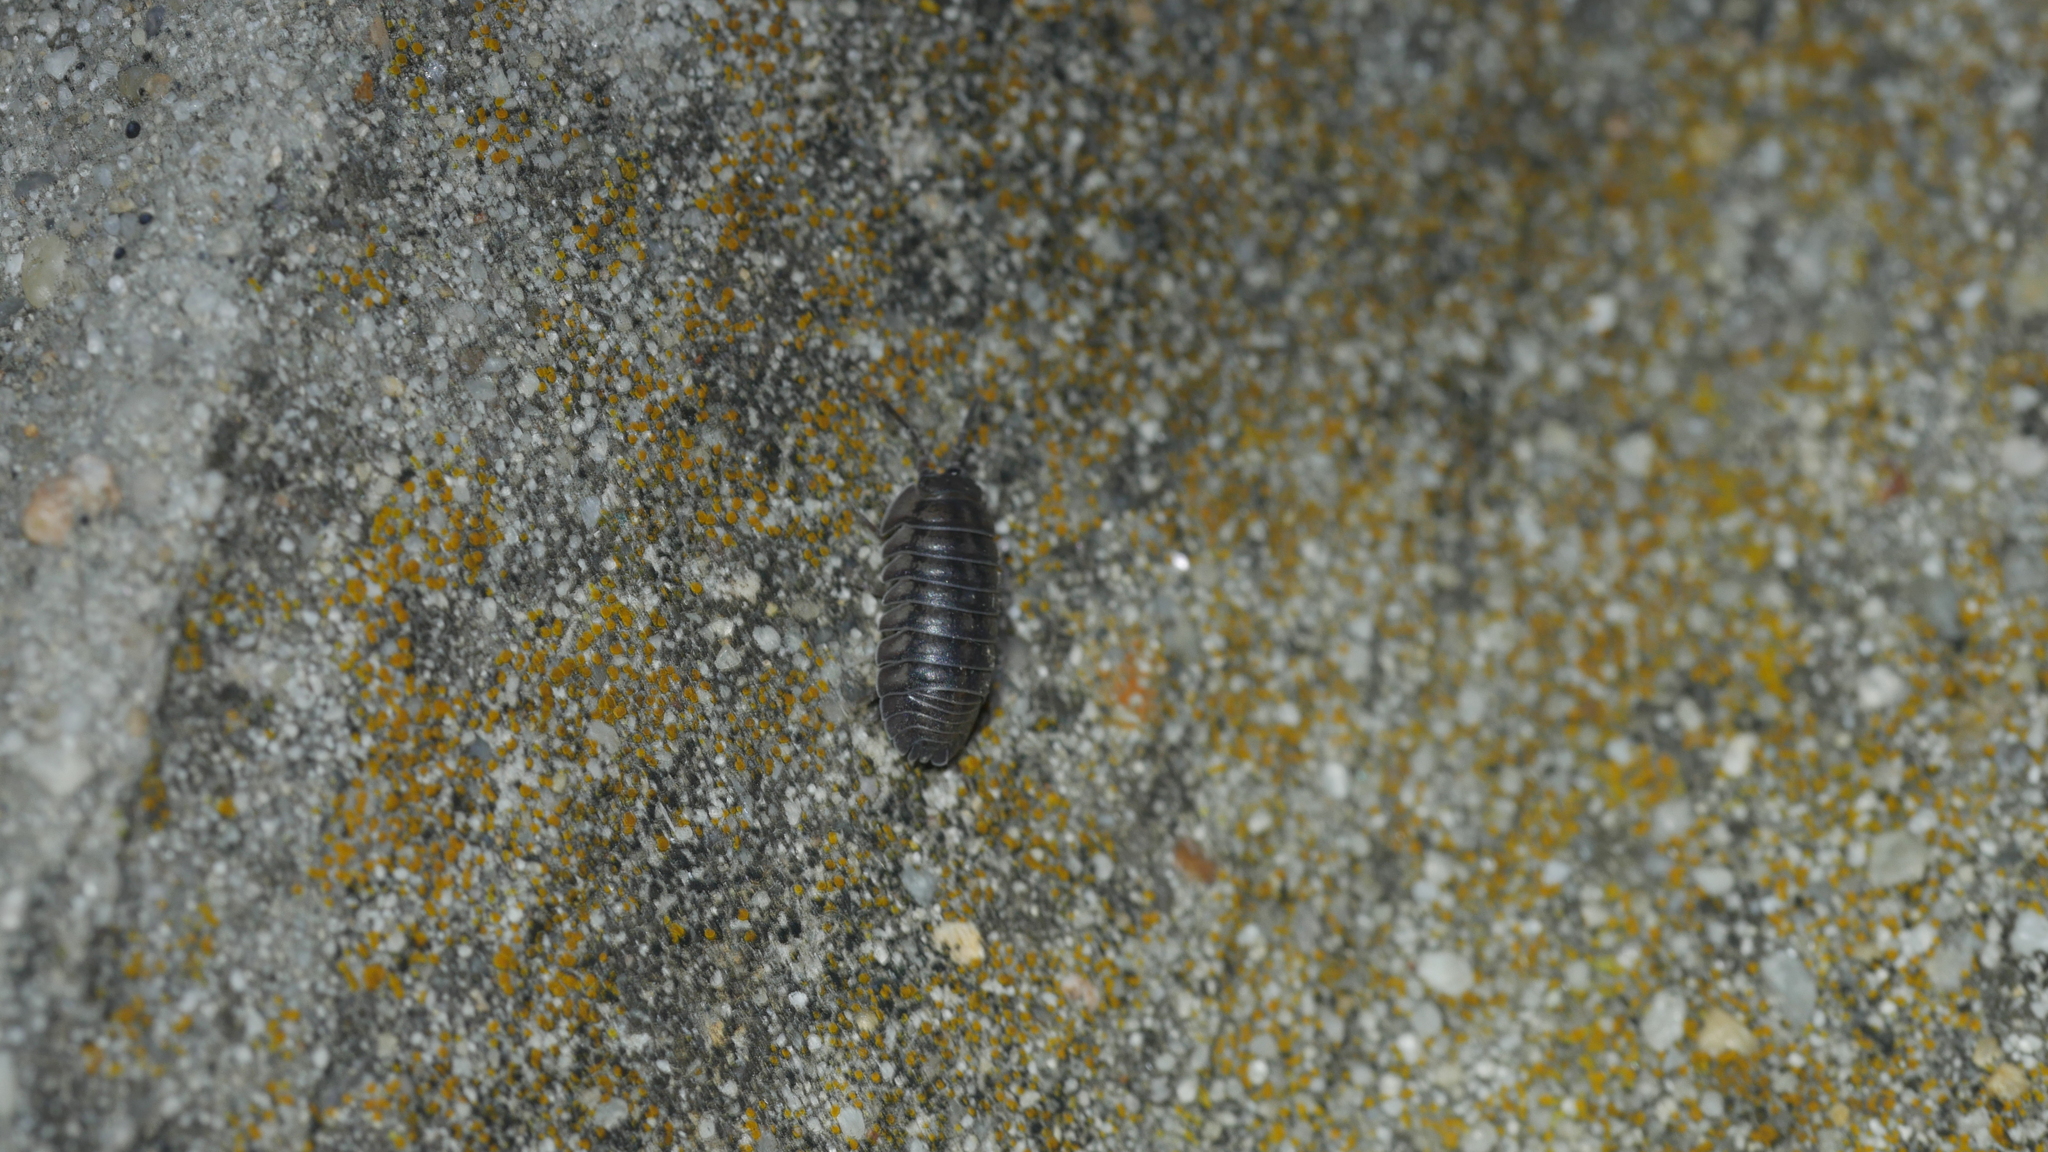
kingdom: Animalia
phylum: Arthropoda
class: Malacostraca
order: Isopoda
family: Armadillidiidae
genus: Armadillidium
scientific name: Armadillidium nasatum
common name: Isopod
